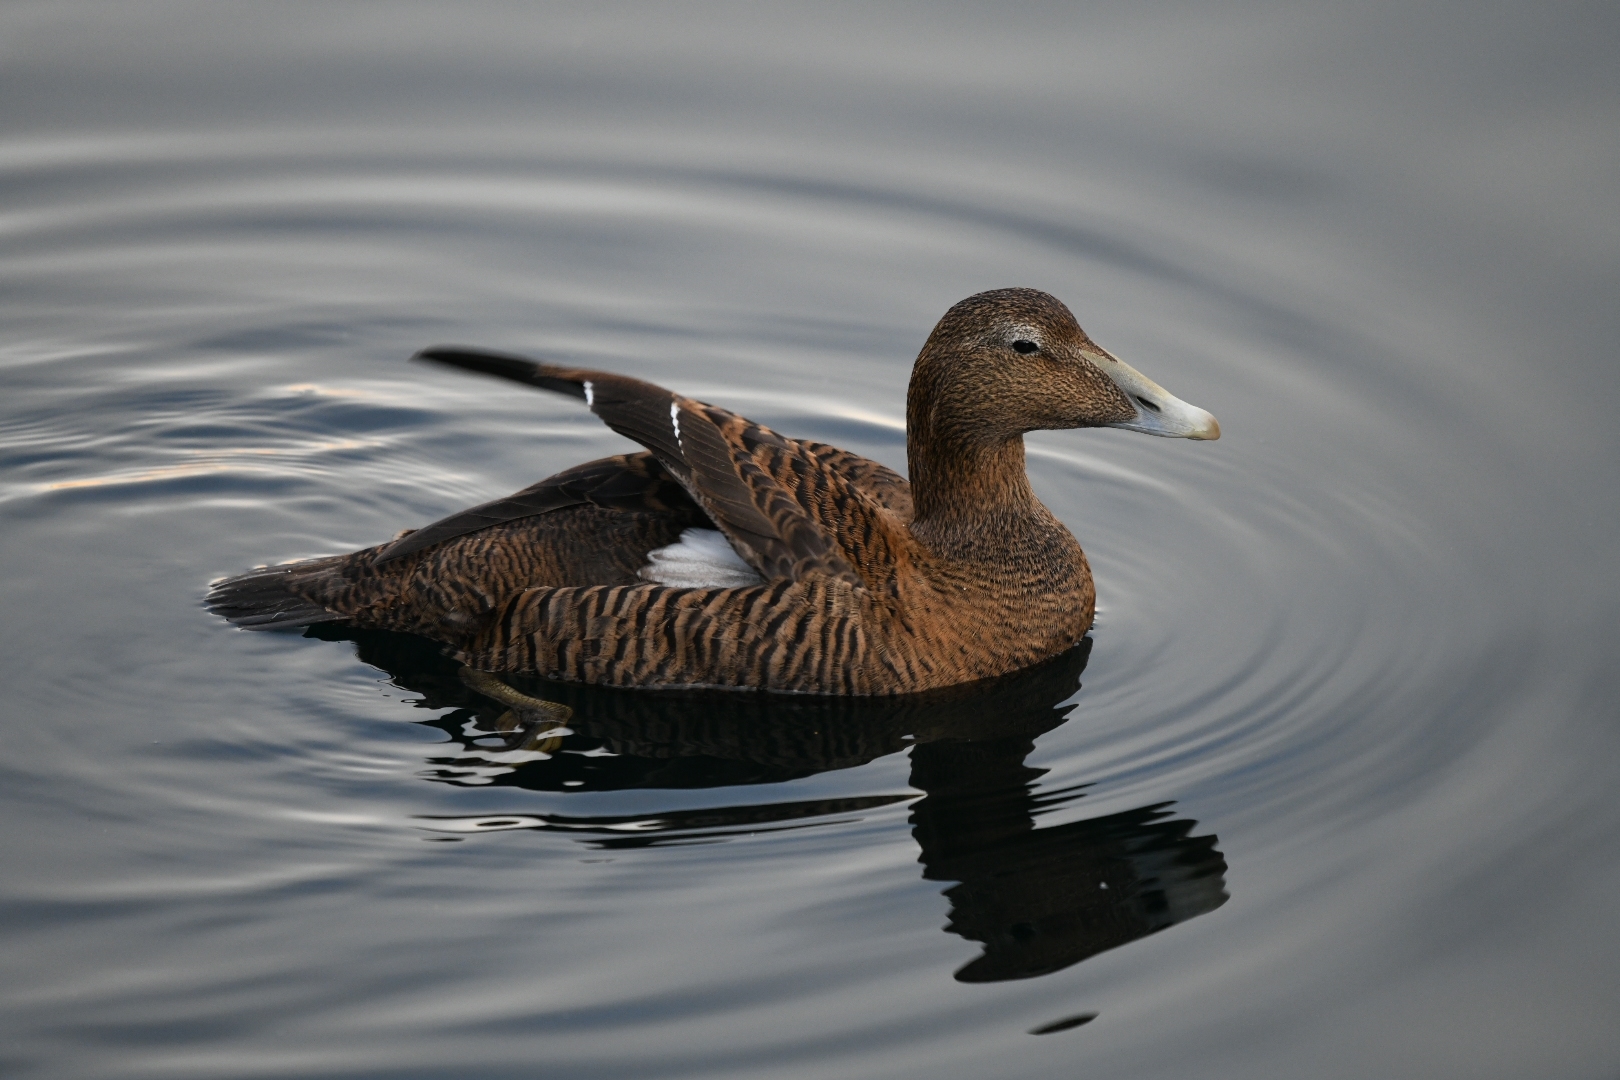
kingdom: Animalia
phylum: Chordata
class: Aves
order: Anseriformes
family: Anatidae
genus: Somateria
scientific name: Somateria mollissima
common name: Common eider
